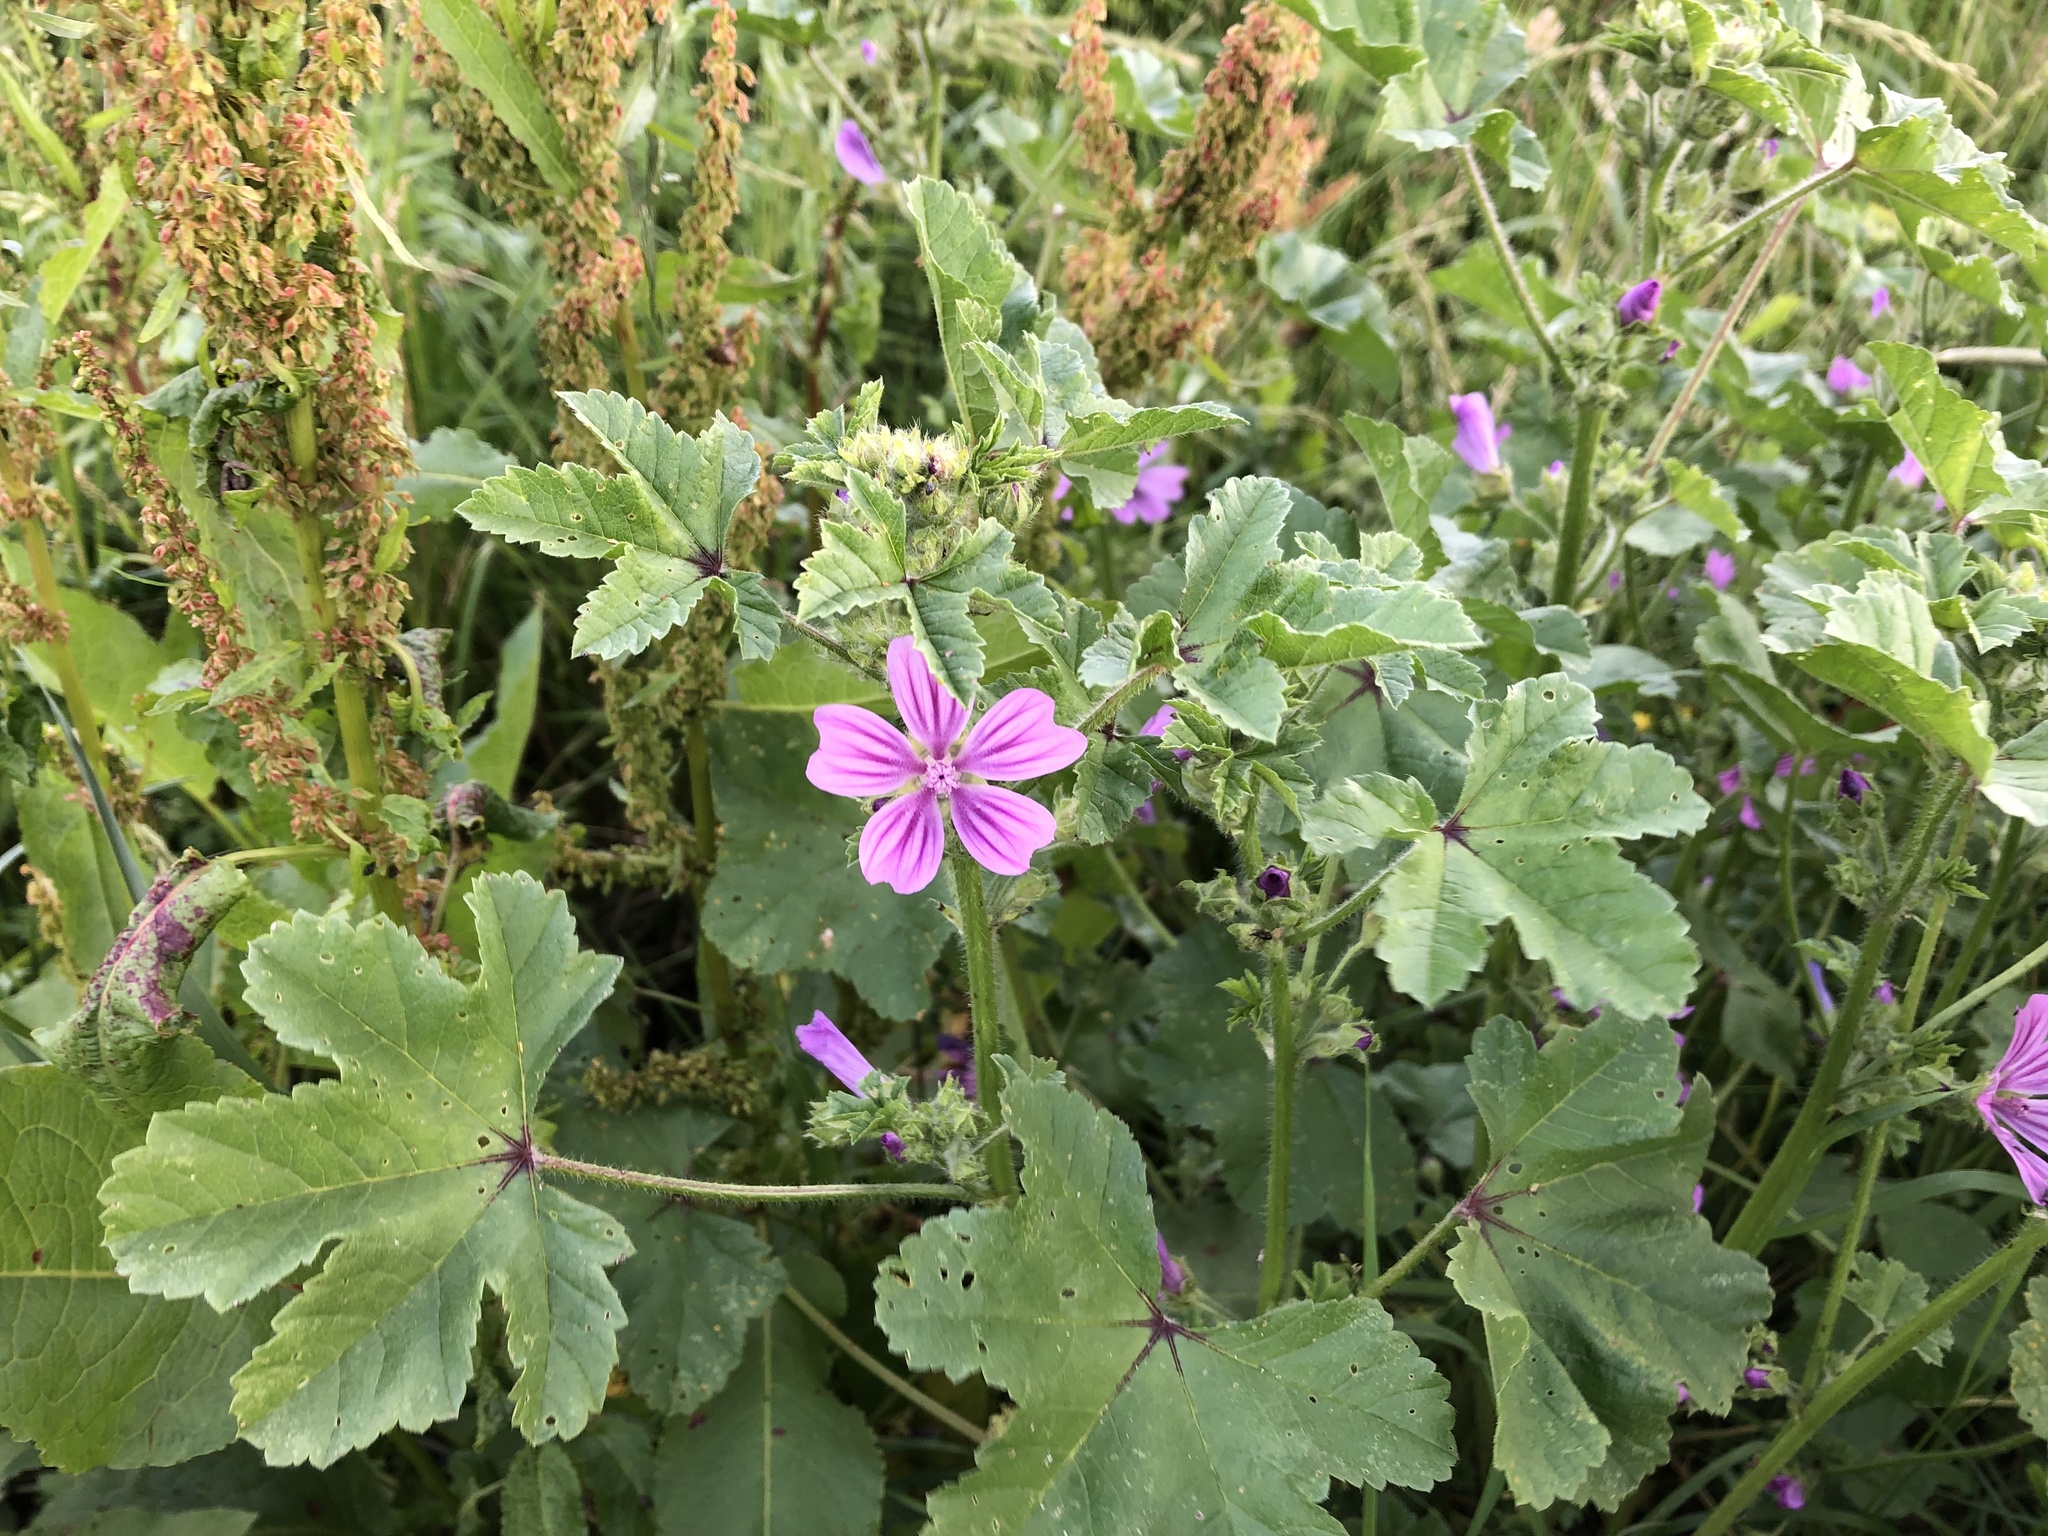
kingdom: Plantae
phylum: Tracheophyta
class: Magnoliopsida
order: Malvales
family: Malvaceae
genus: Malva
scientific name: Malva sylvestris
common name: Common mallow
